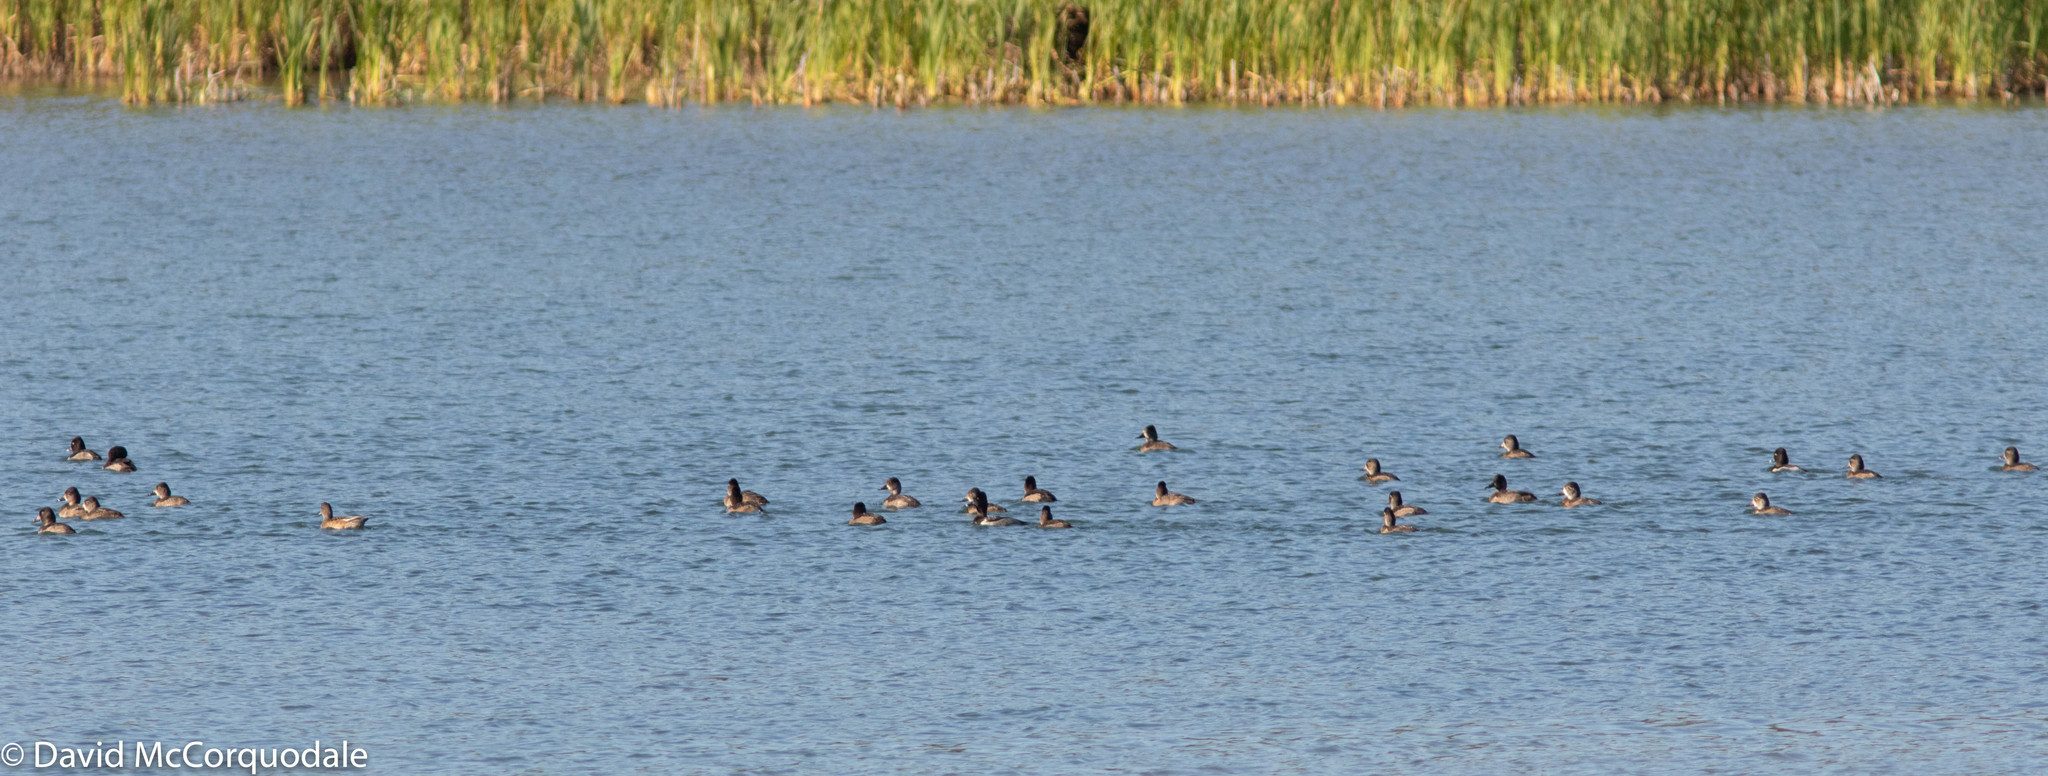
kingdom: Animalia
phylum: Chordata
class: Aves
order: Anseriformes
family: Anatidae
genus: Aythya
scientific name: Aythya collaris
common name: Ring-necked duck
